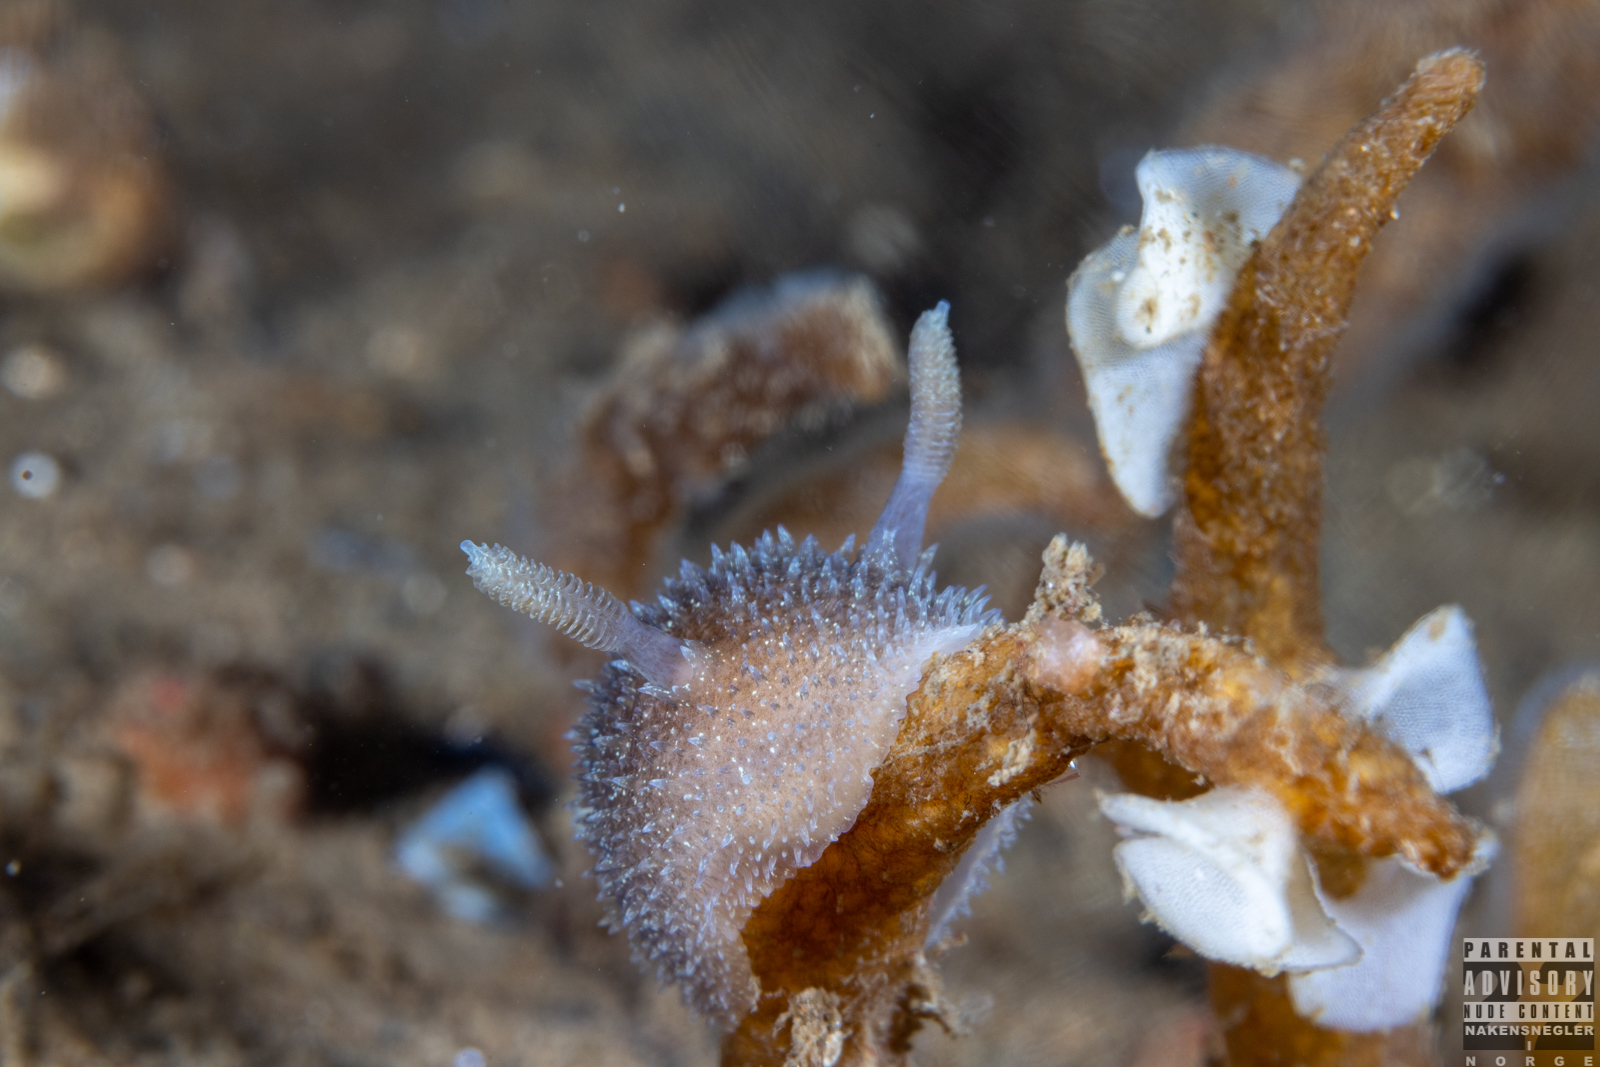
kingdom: Animalia
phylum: Mollusca
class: Gastropoda
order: Nudibranchia
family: Onchidorididae
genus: Acanthodoris
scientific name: Acanthodoris pilosa
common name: Hairy spiny doris
